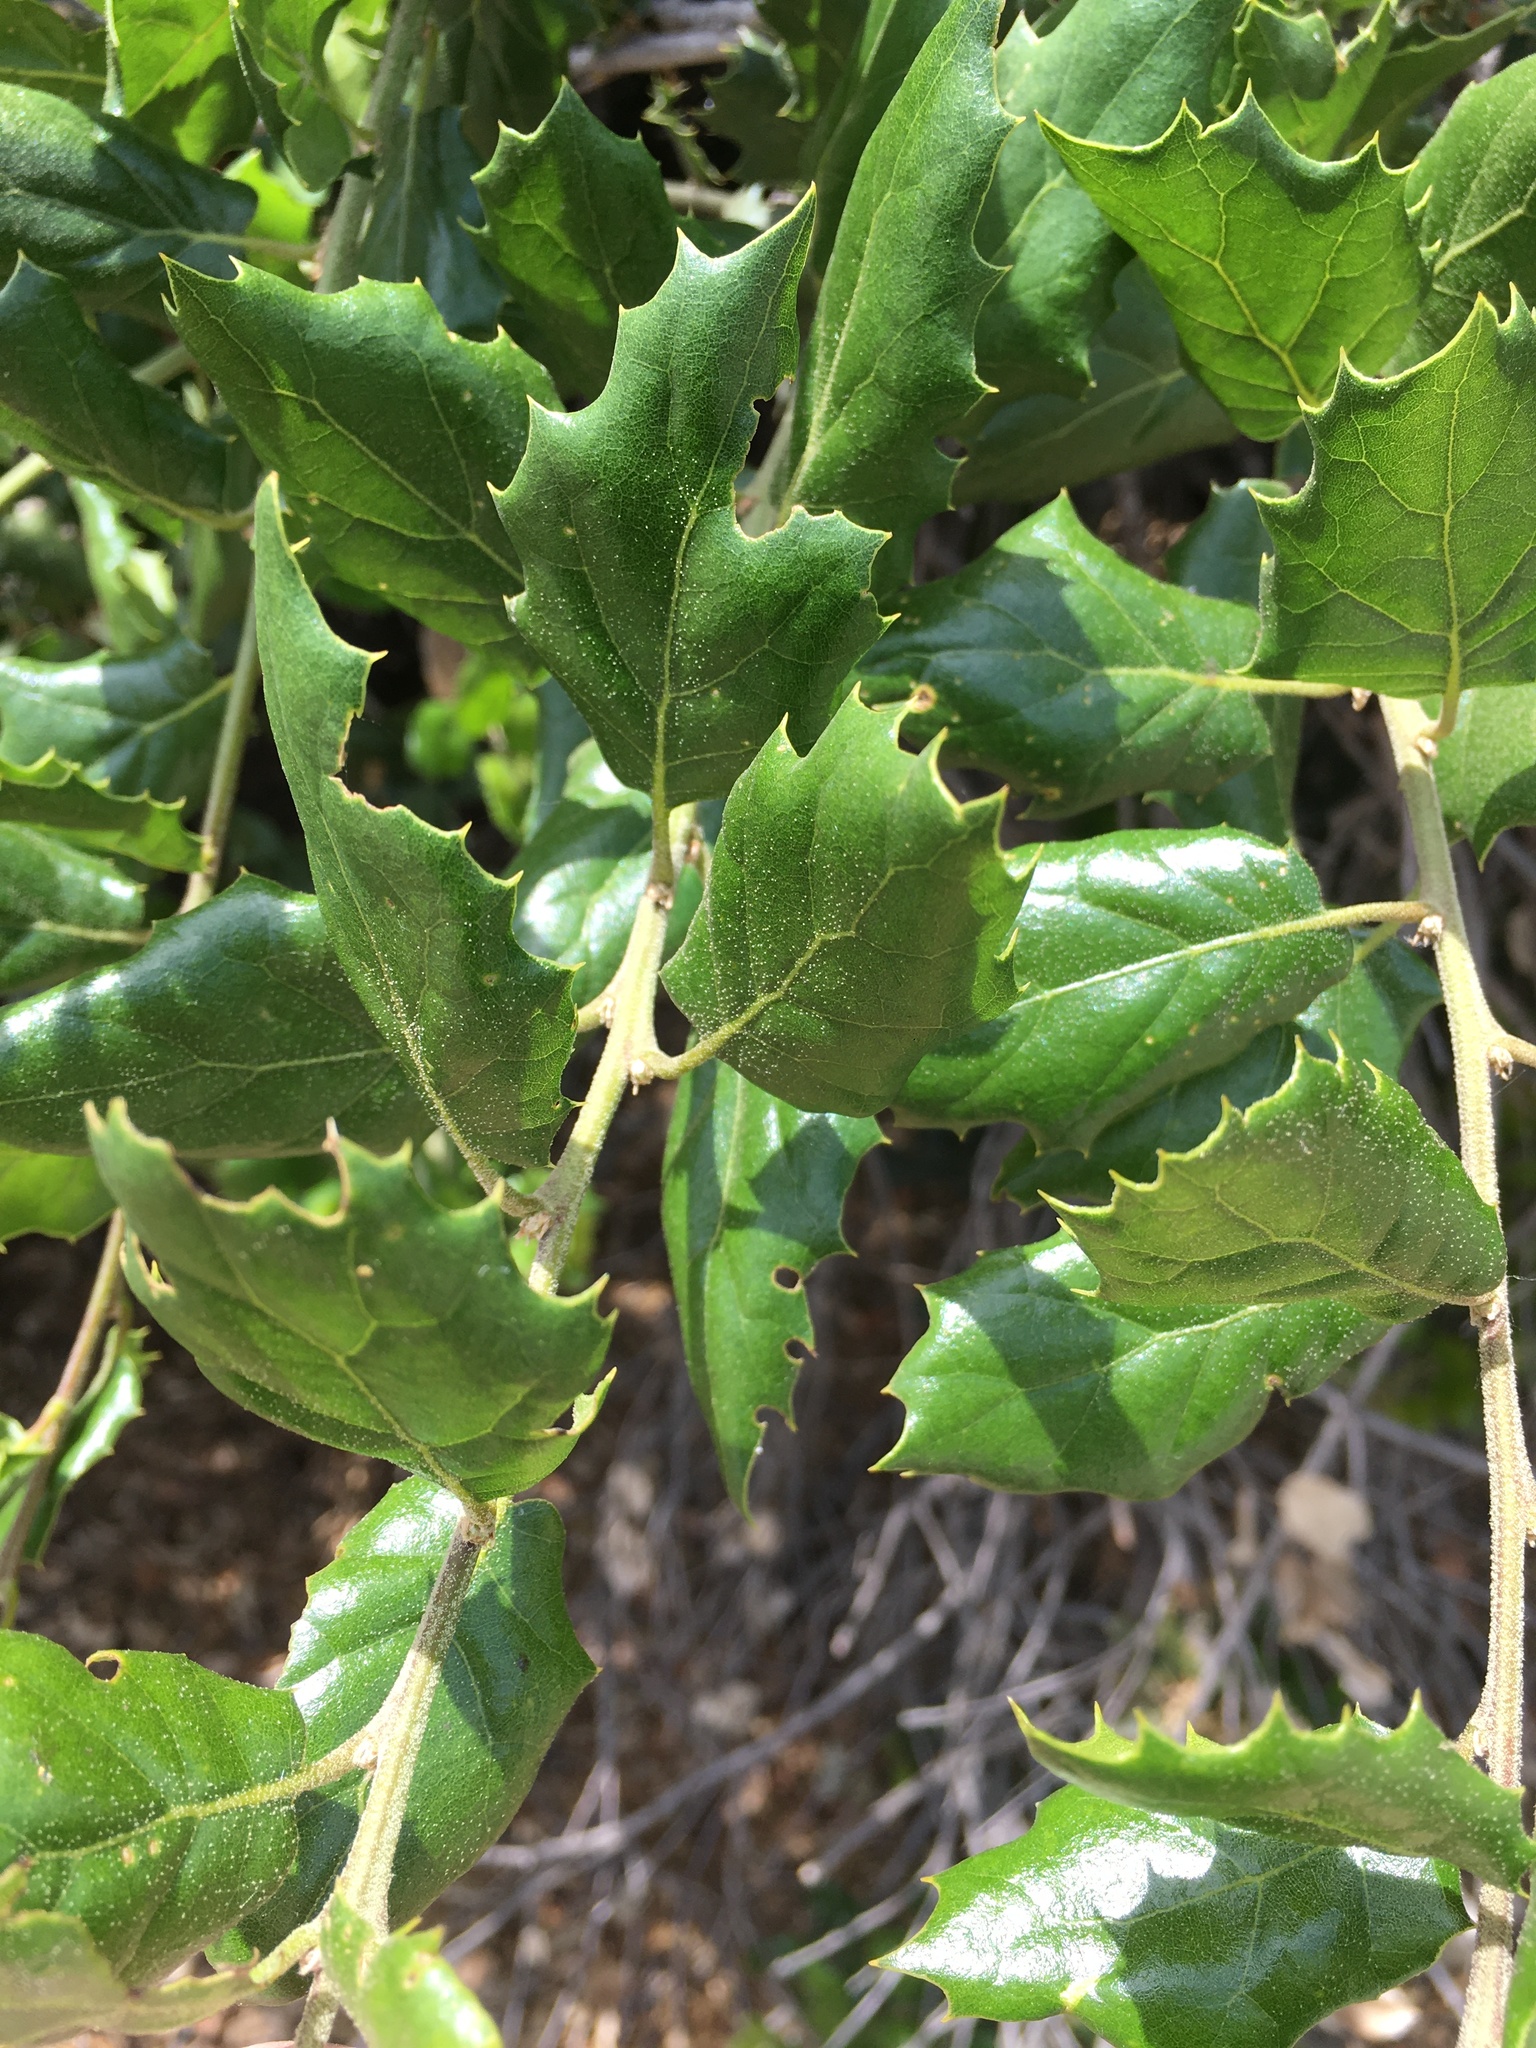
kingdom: Plantae
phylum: Tracheophyta
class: Magnoliopsida
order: Fagales
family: Fagaceae
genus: Quercus
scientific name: Quercus agrifolia
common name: California live oak
